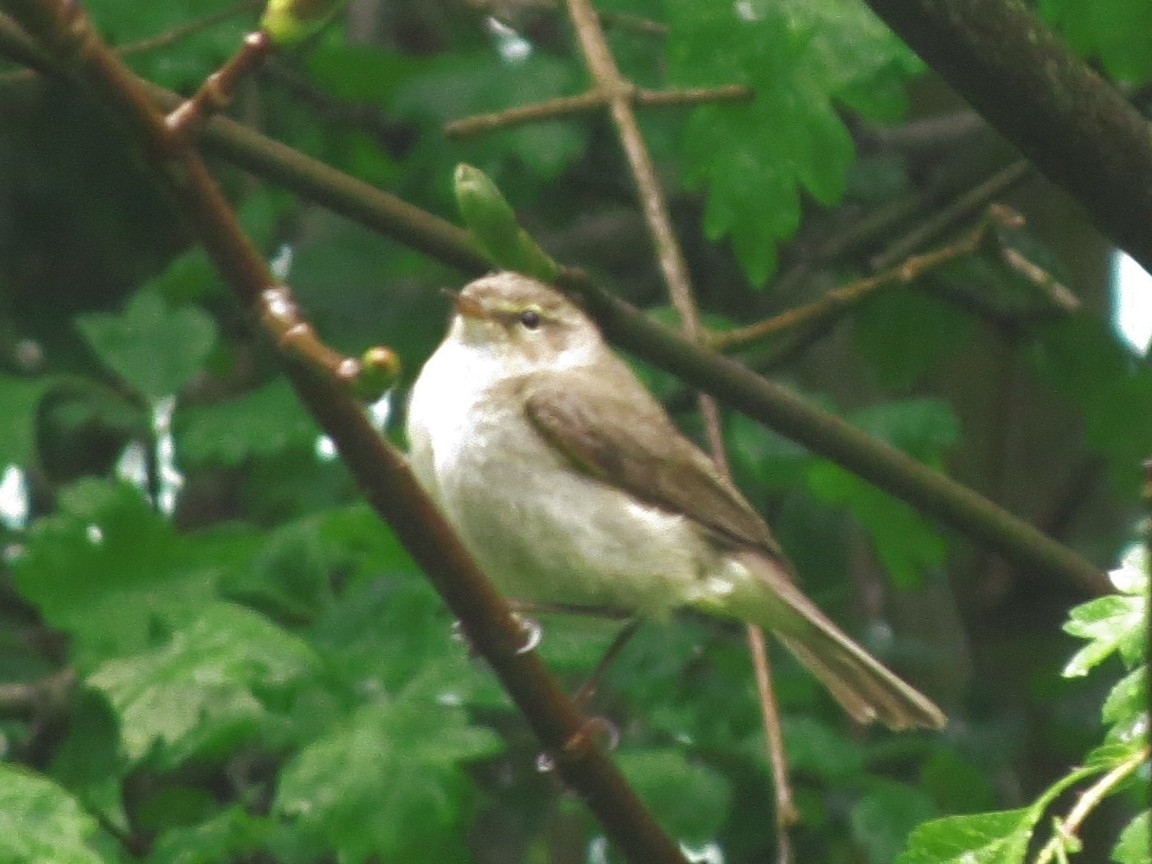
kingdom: Animalia
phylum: Chordata
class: Aves
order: Passeriformes
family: Phylloscopidae
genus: Phylloscopus
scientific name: Phylloscopus collybita
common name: Common chiffchaff
